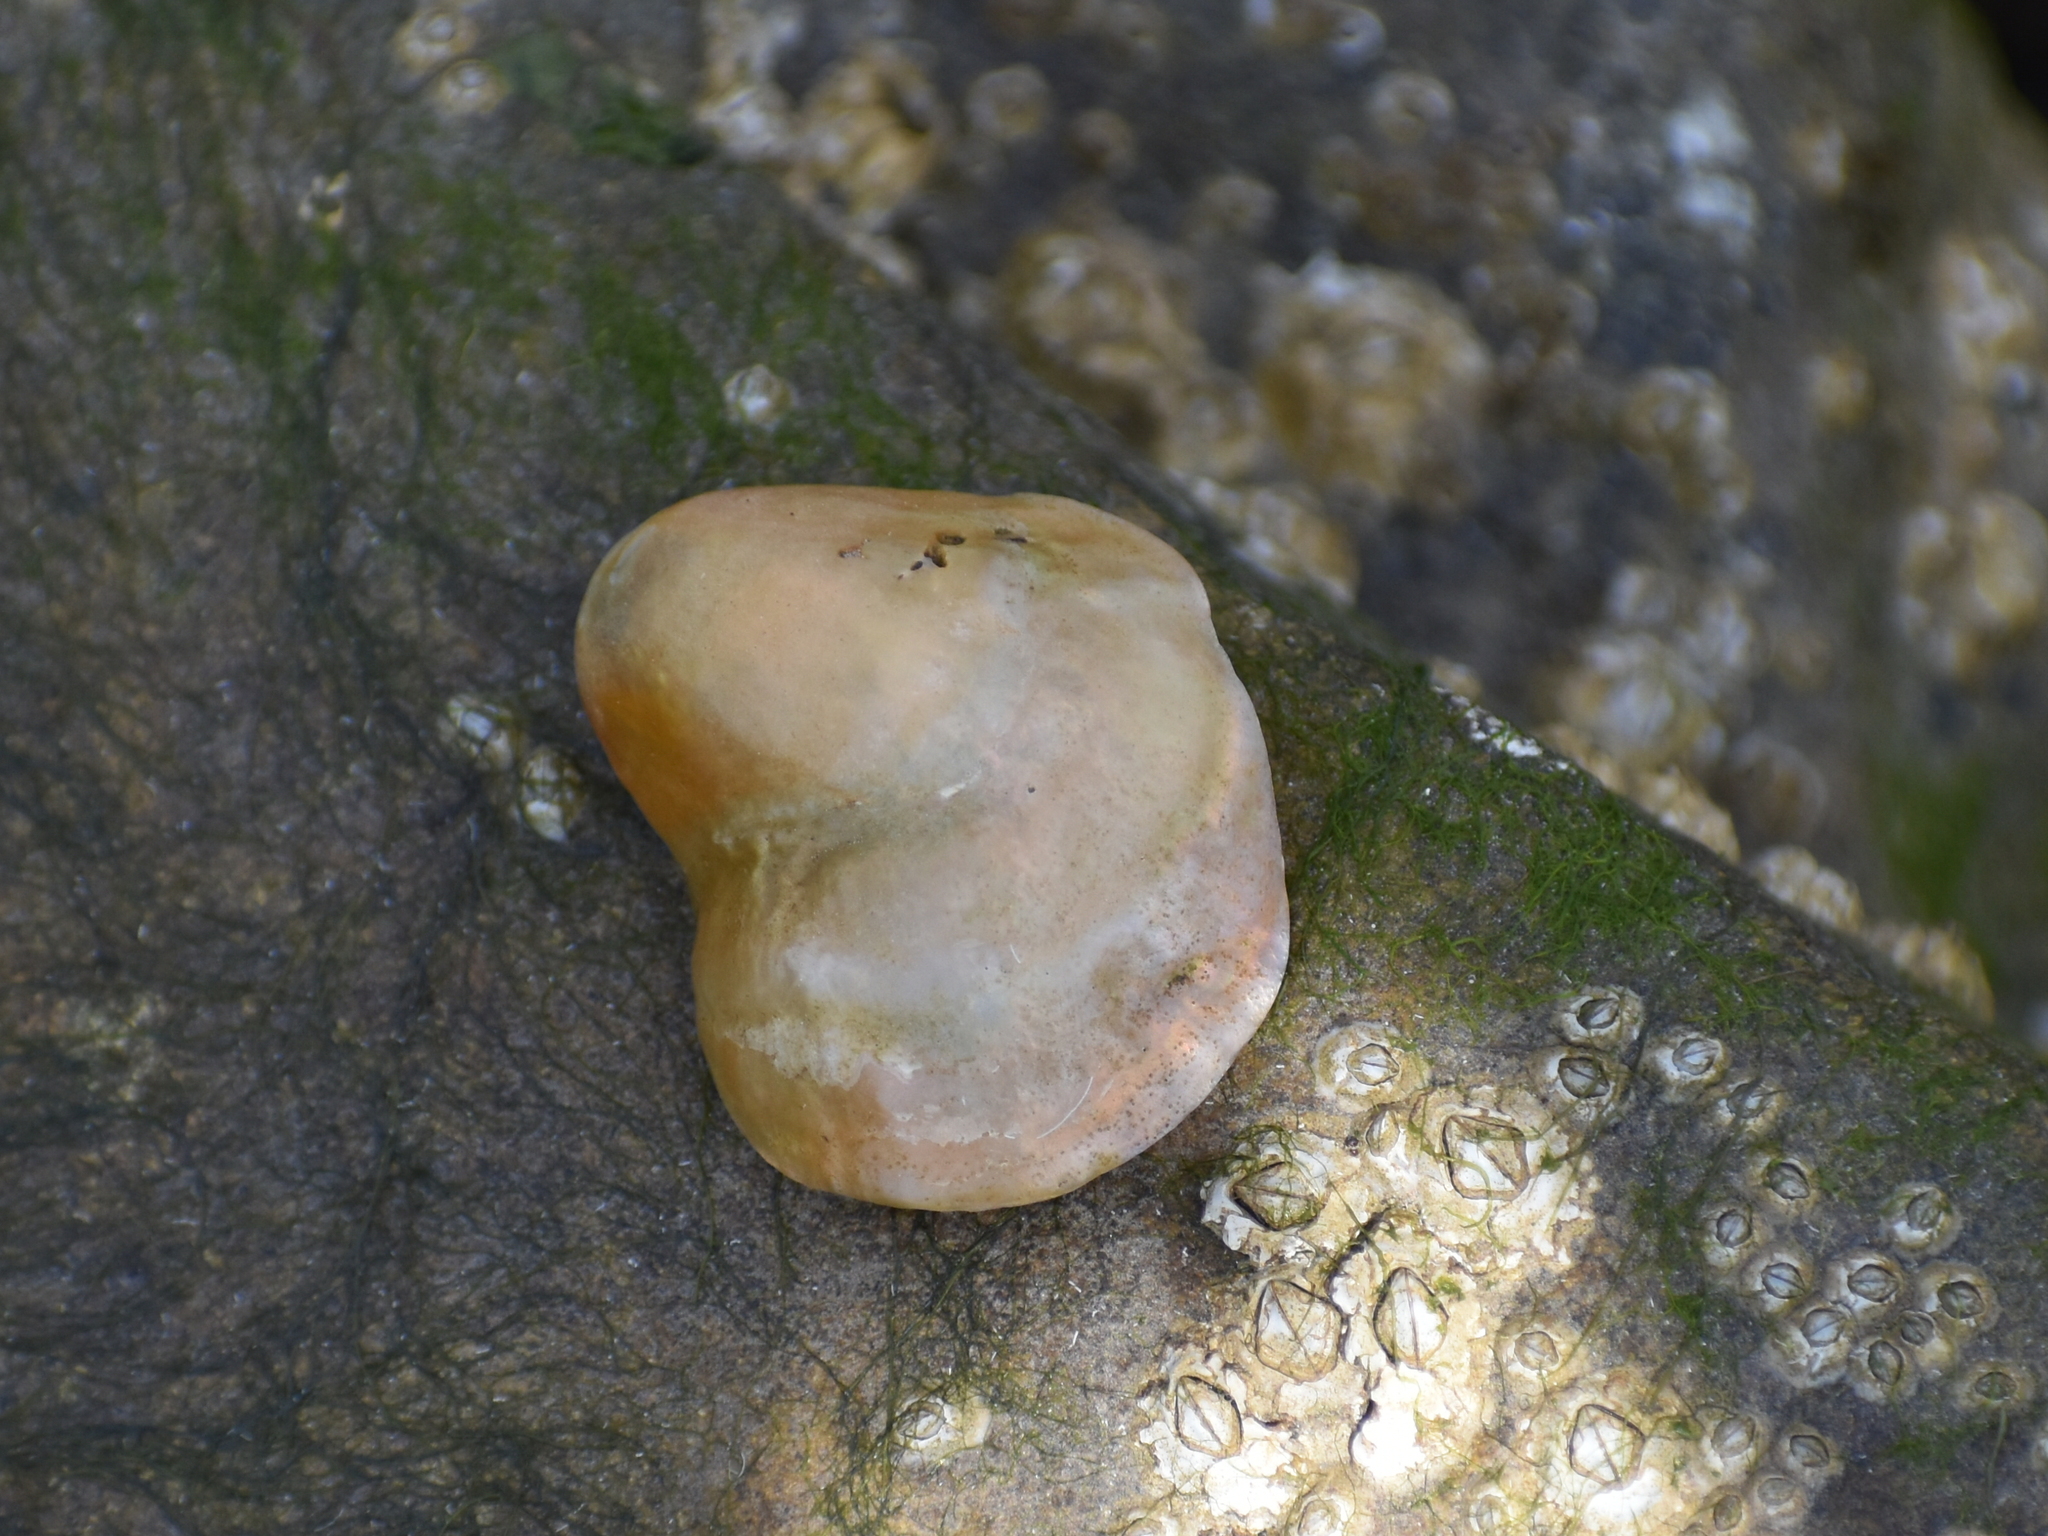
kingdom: Animalia
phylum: Mollusca
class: Bivalvia
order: Pectinida
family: Anomiidae
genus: Anomia
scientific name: Anomia simplex
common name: Common jingle shell
